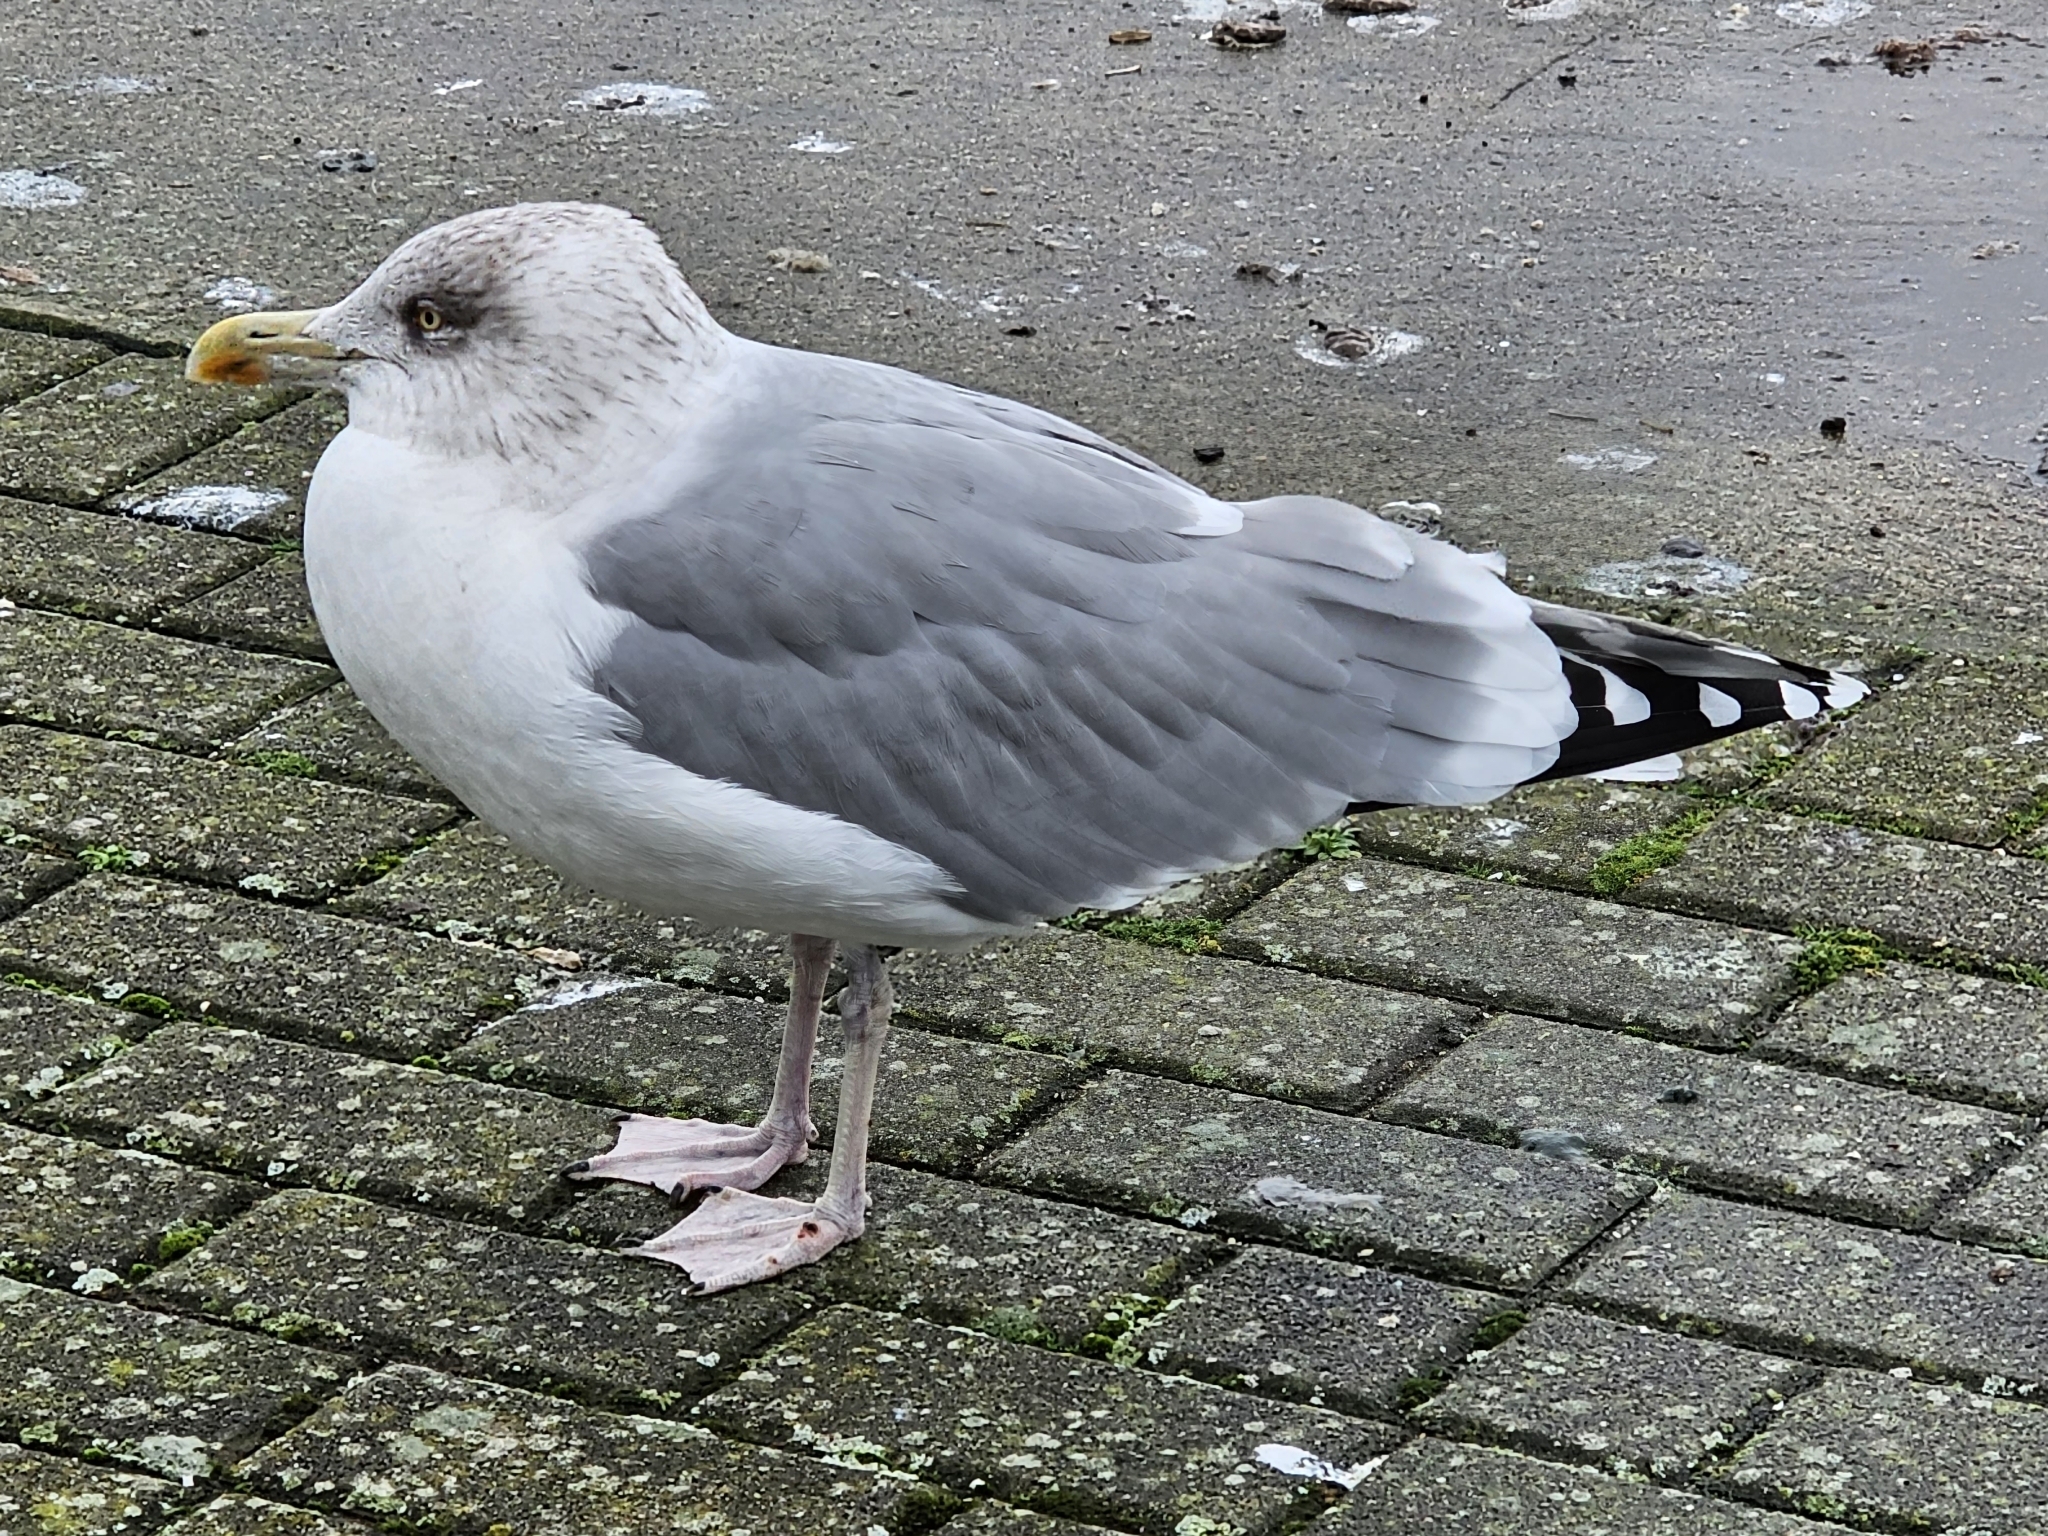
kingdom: Animalia
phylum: Chordata
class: Aves
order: Charadriiformes
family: Laridae
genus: Larus
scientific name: Larus argentatus
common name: Herring gull
